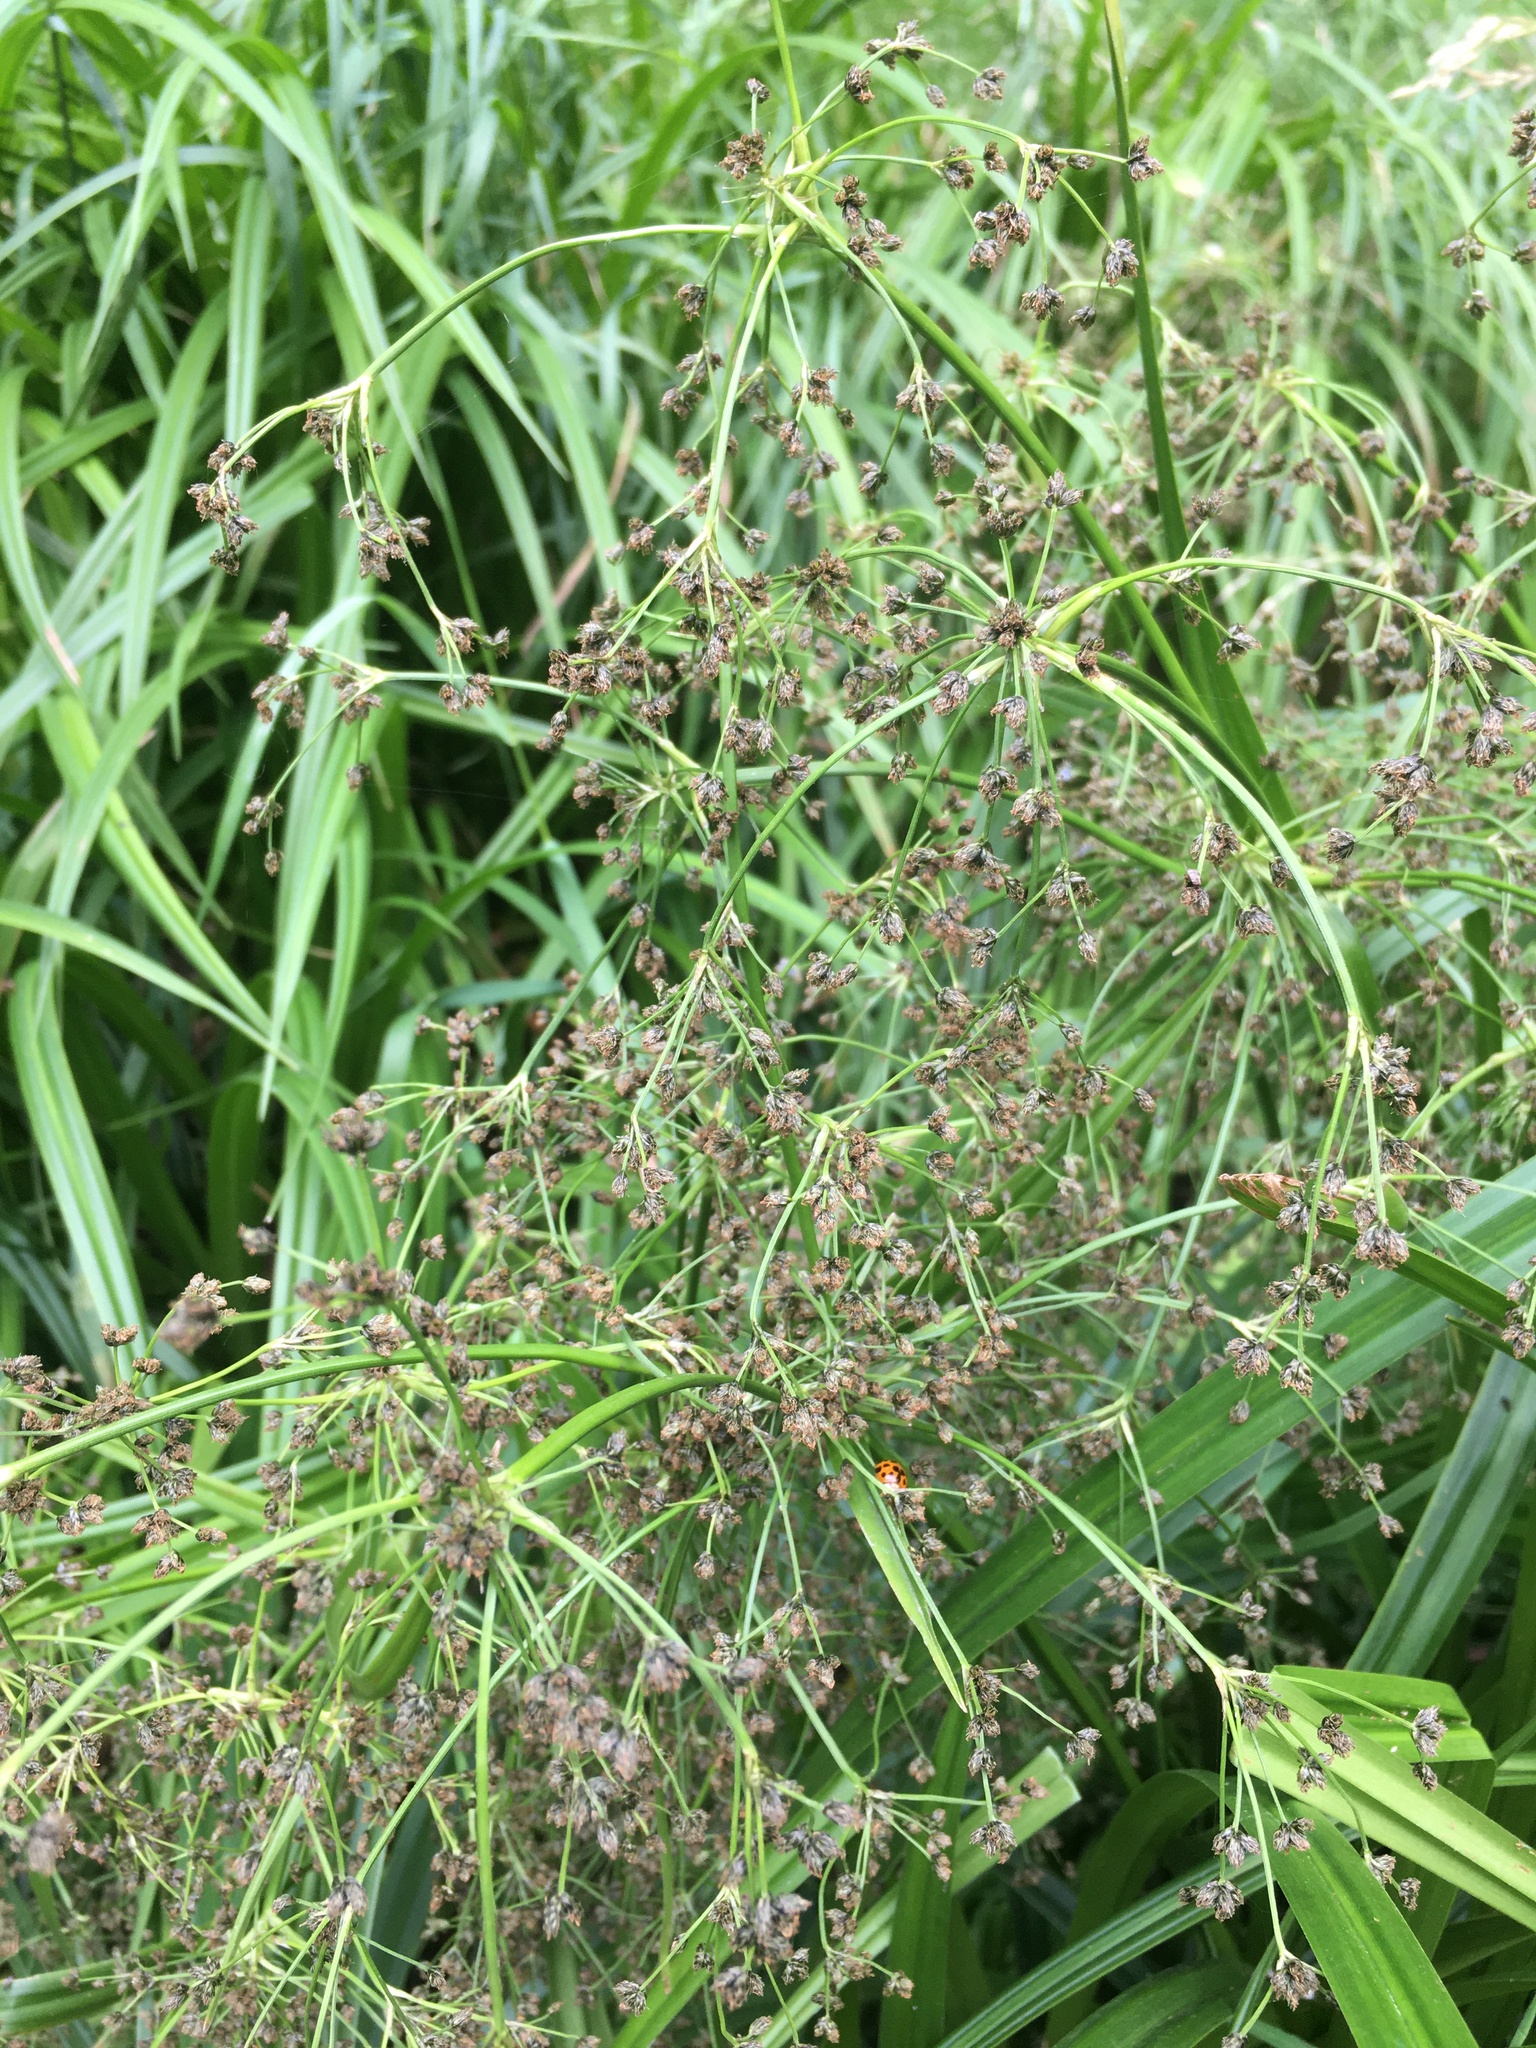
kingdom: Plantae
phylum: Tracheophyta
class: Liliopsida
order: Poales
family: Cyperaceae
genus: Scirpus
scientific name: Scirpus sylvaticus
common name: Wood club-rush
